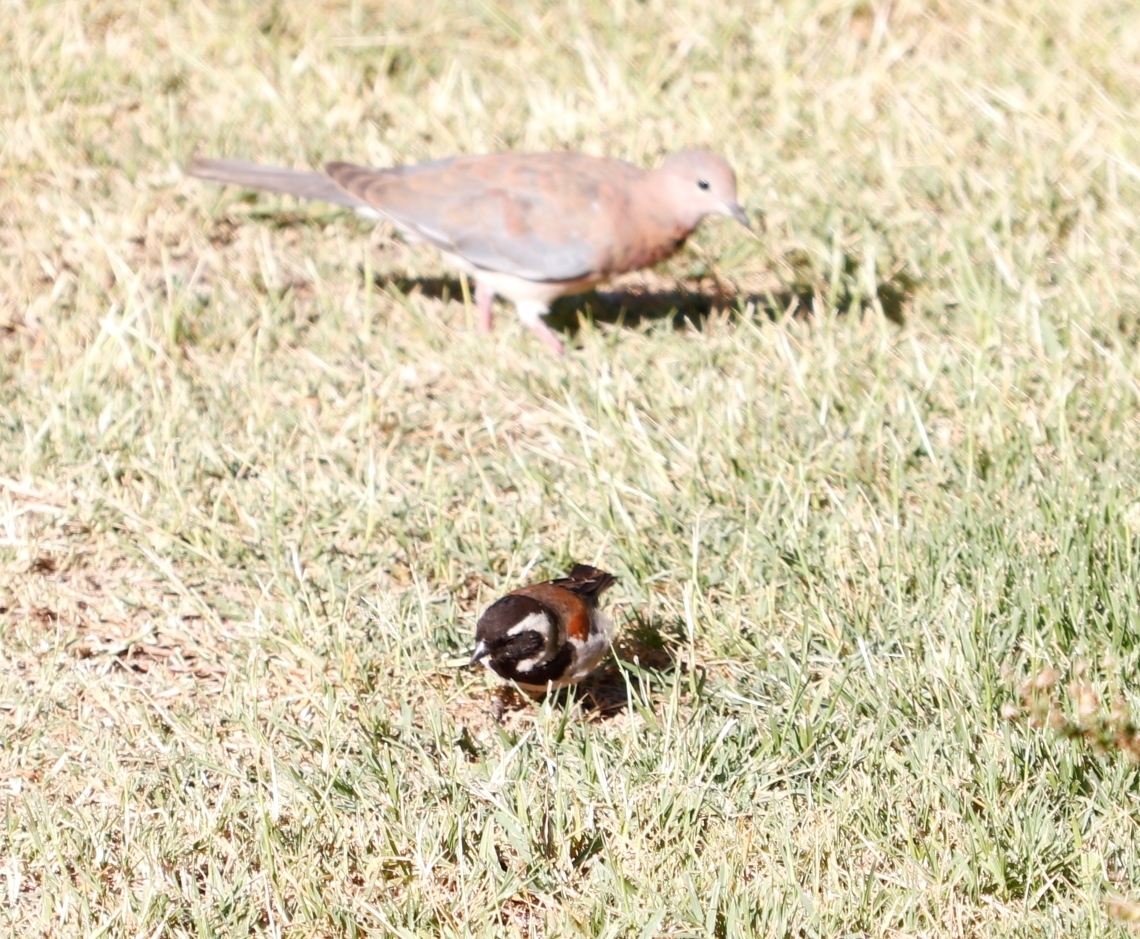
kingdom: Animalia
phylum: Chordata
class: Aves
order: Passeriformes
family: Passeridae
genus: Passer
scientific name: Passer melanurus
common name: Cape sparrow
